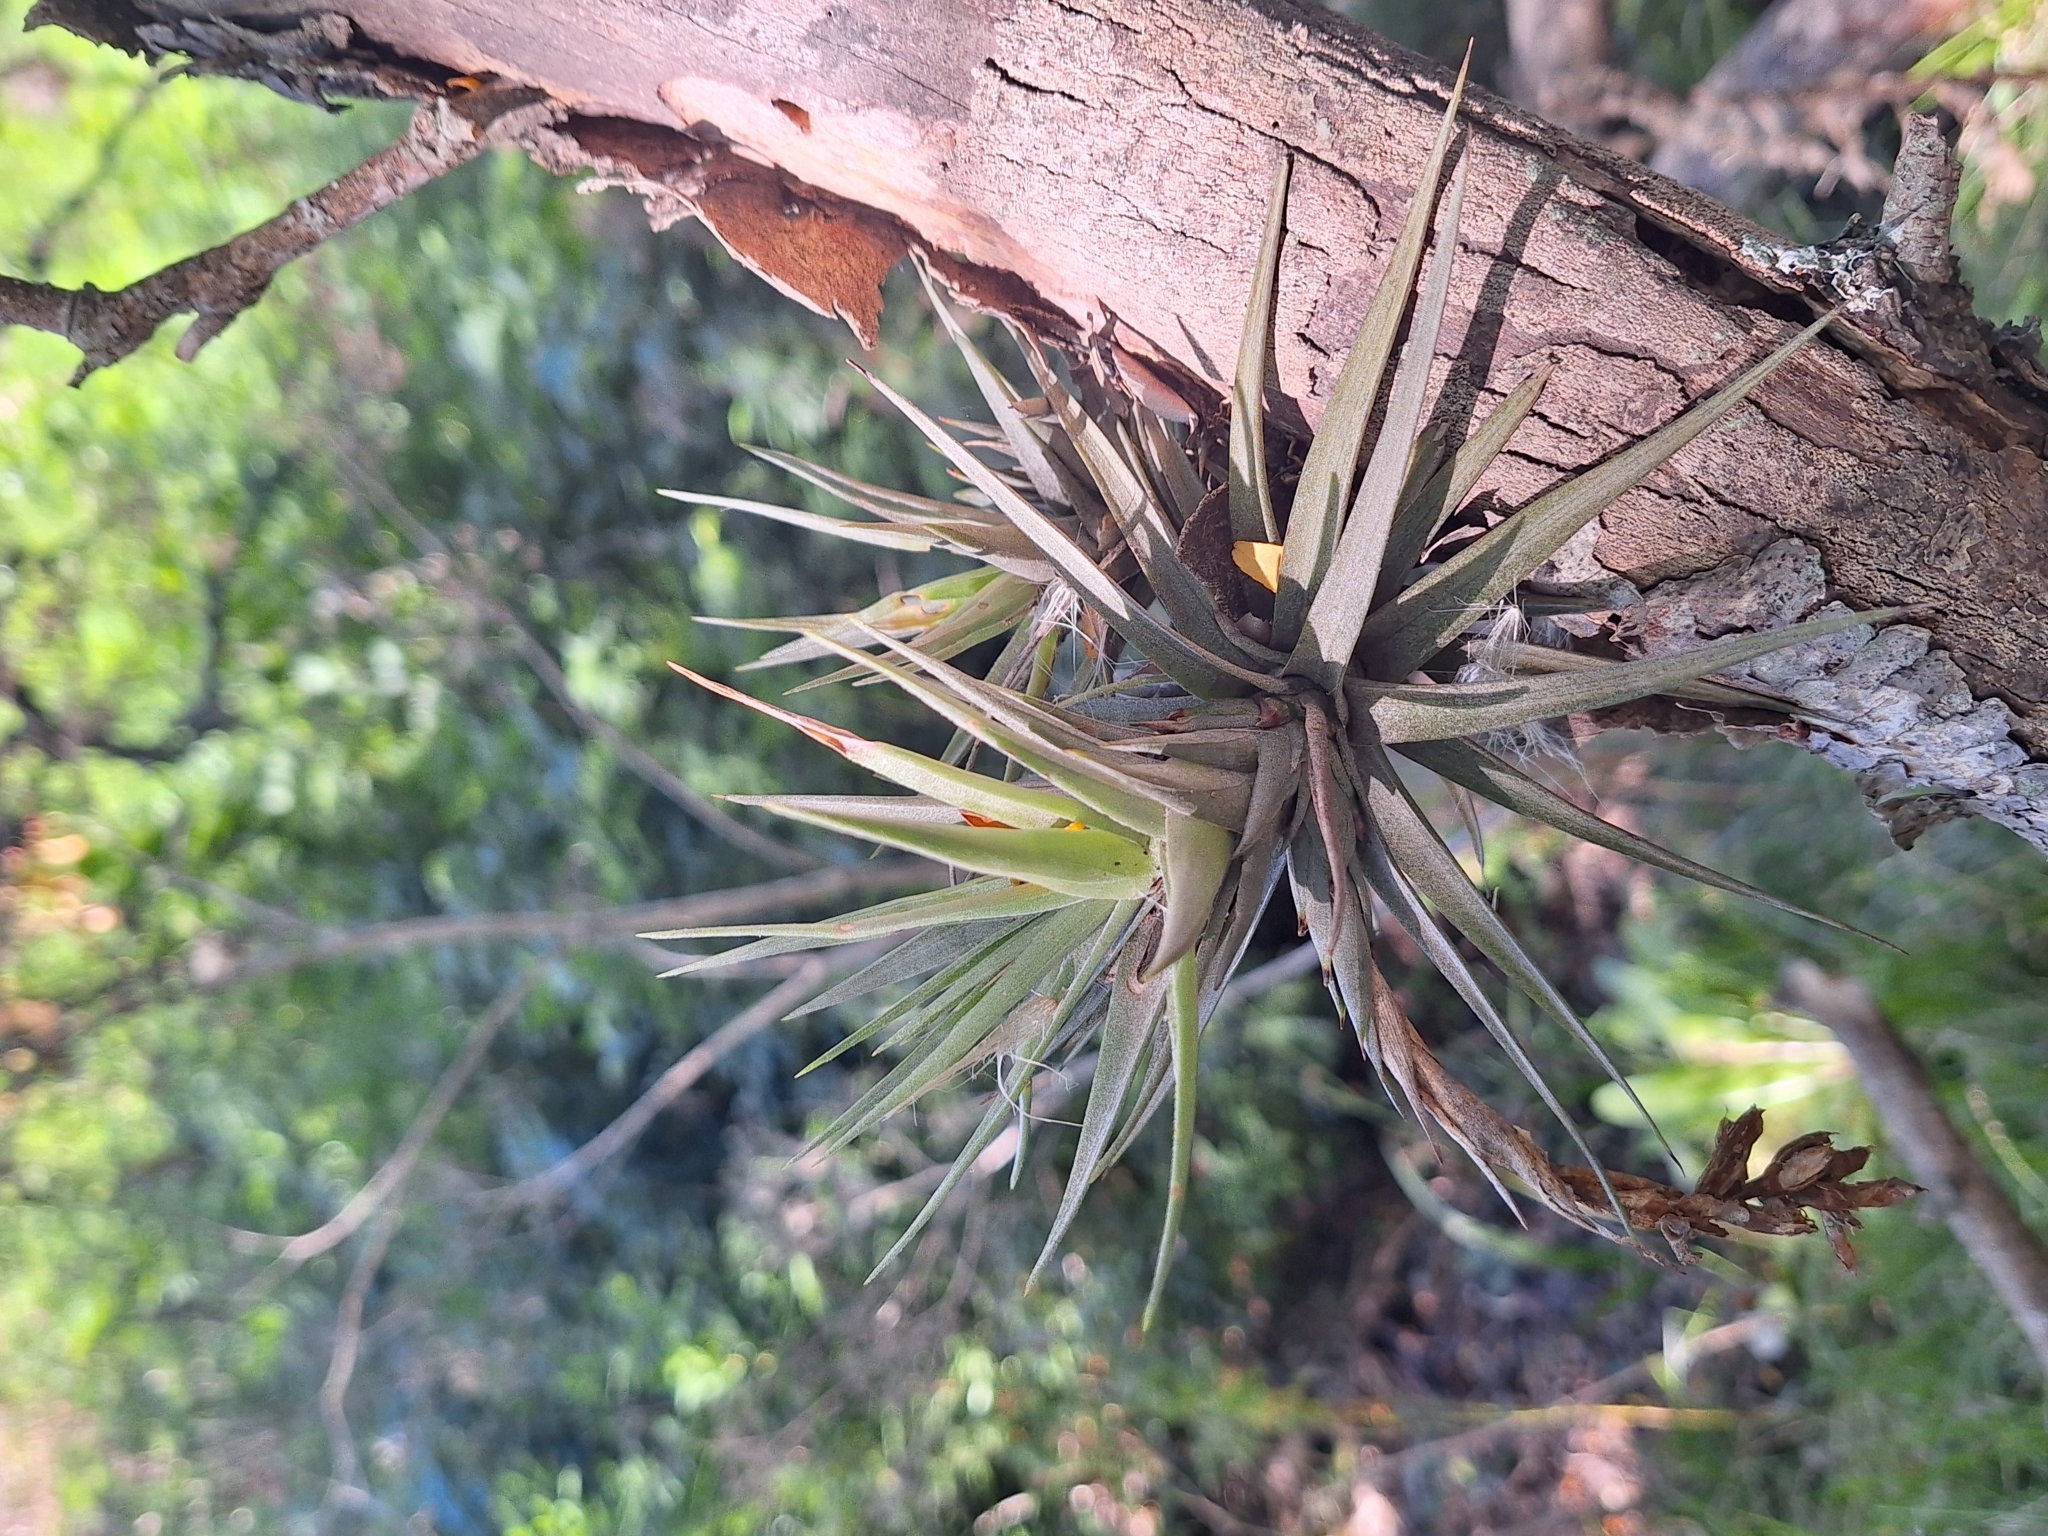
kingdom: Plantae
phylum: Tracheophyta
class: Liliopsida
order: Poales
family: Bromeliaceae
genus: Tillandsia
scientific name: Tillandsia aeranthos
